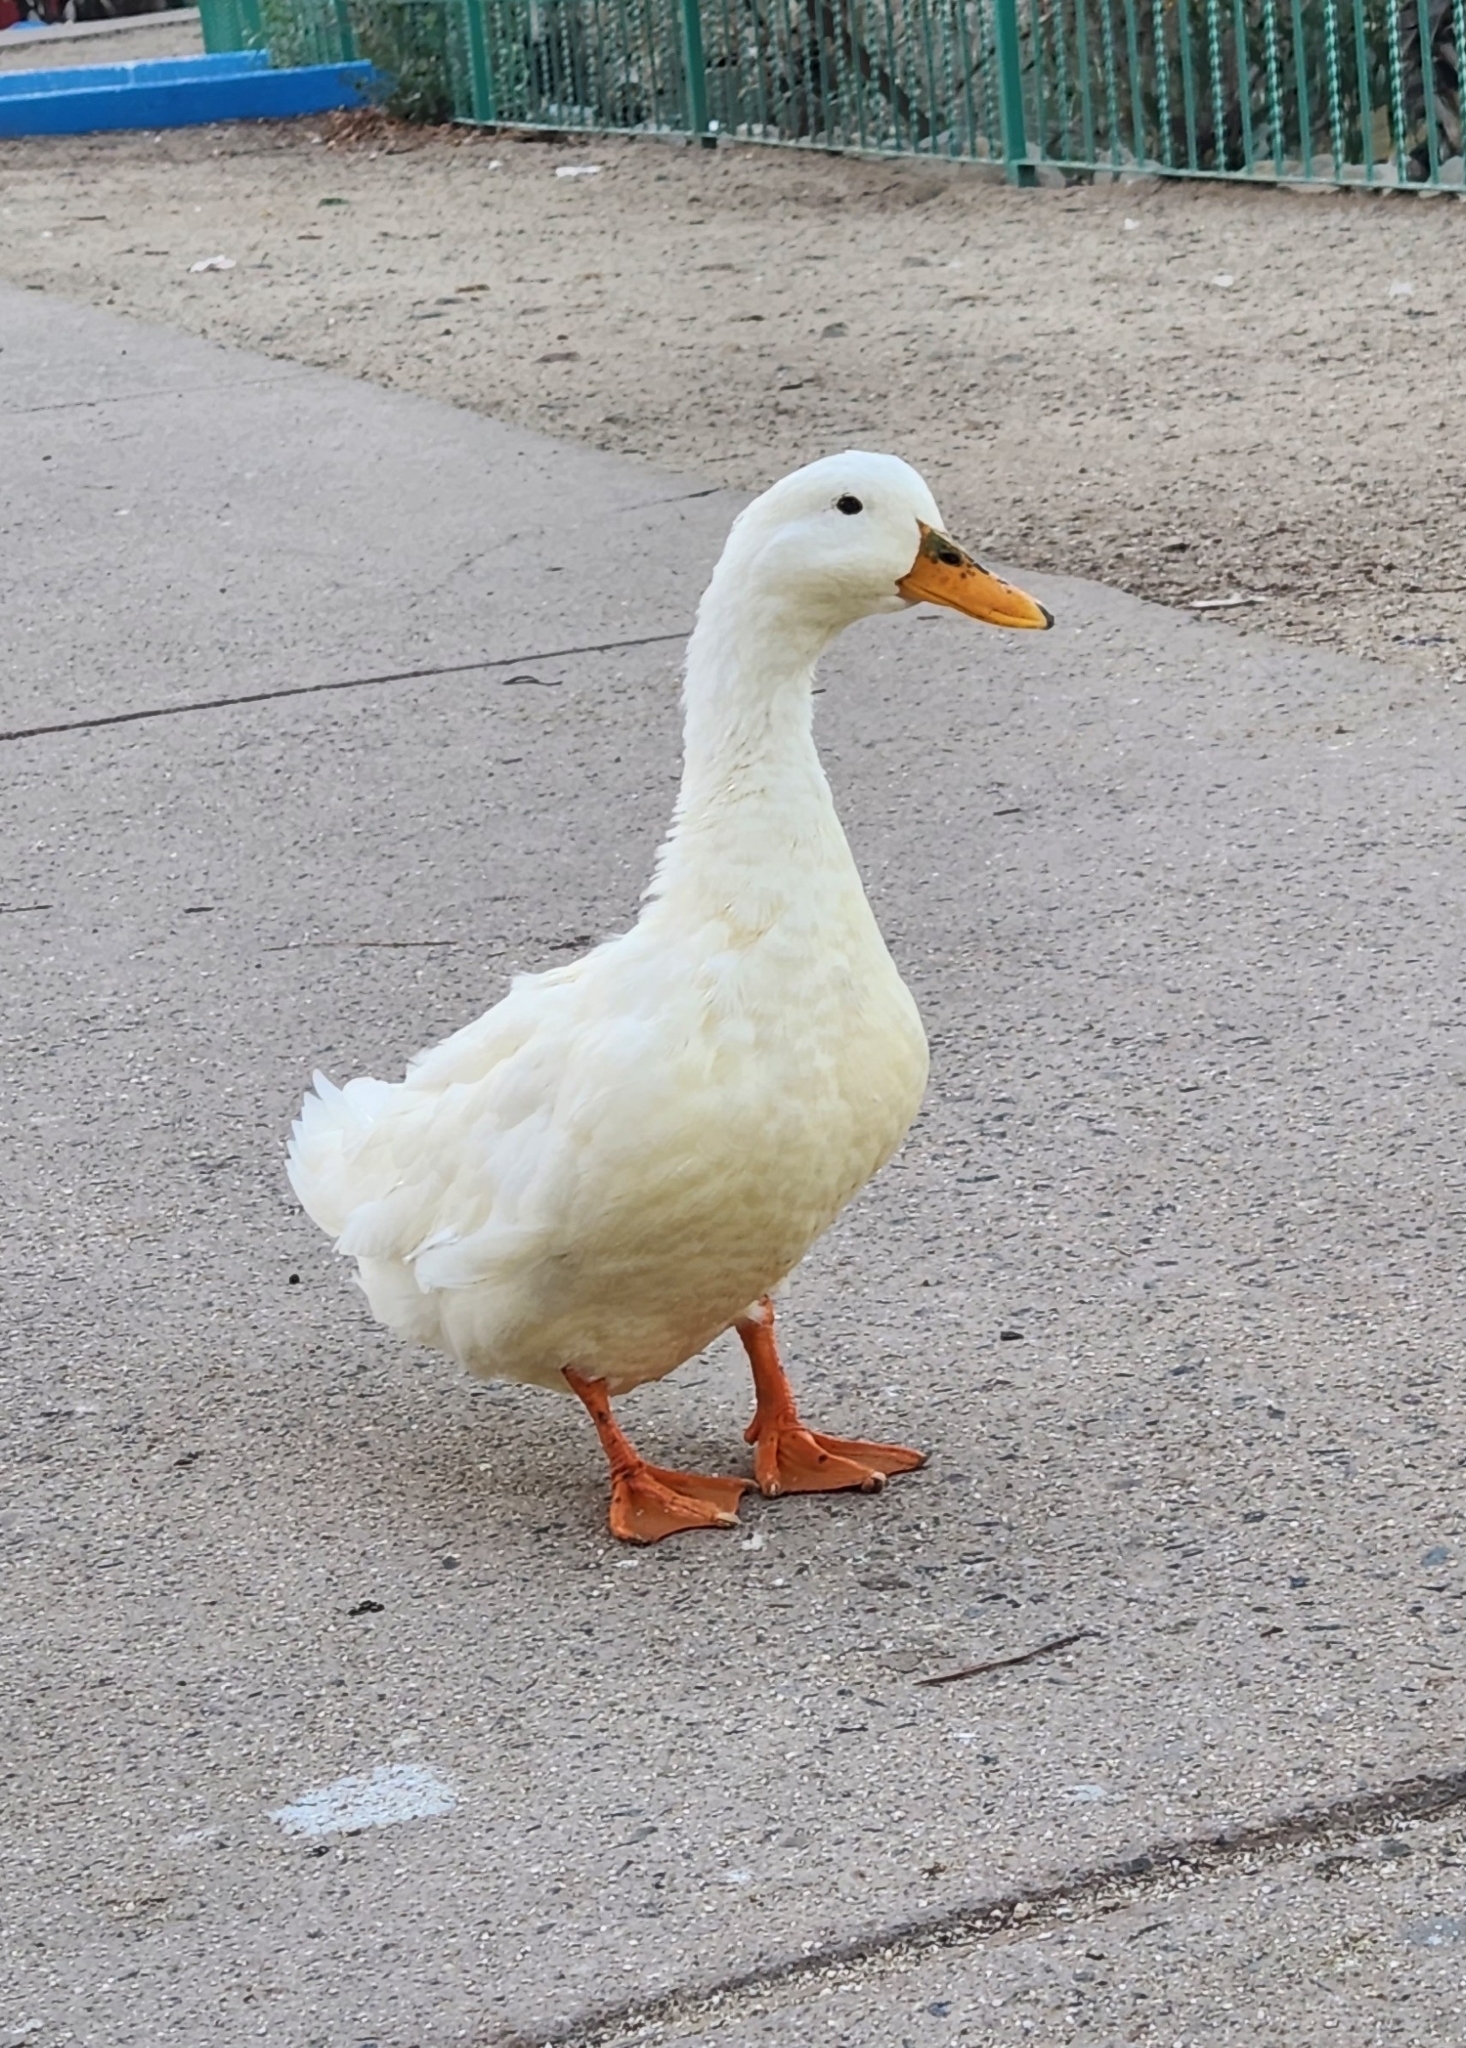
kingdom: Animalia
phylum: Chordata
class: Aves
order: Anseriformes
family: Anatidae
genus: Anas
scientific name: Anas platyrhynchos
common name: Mallard
